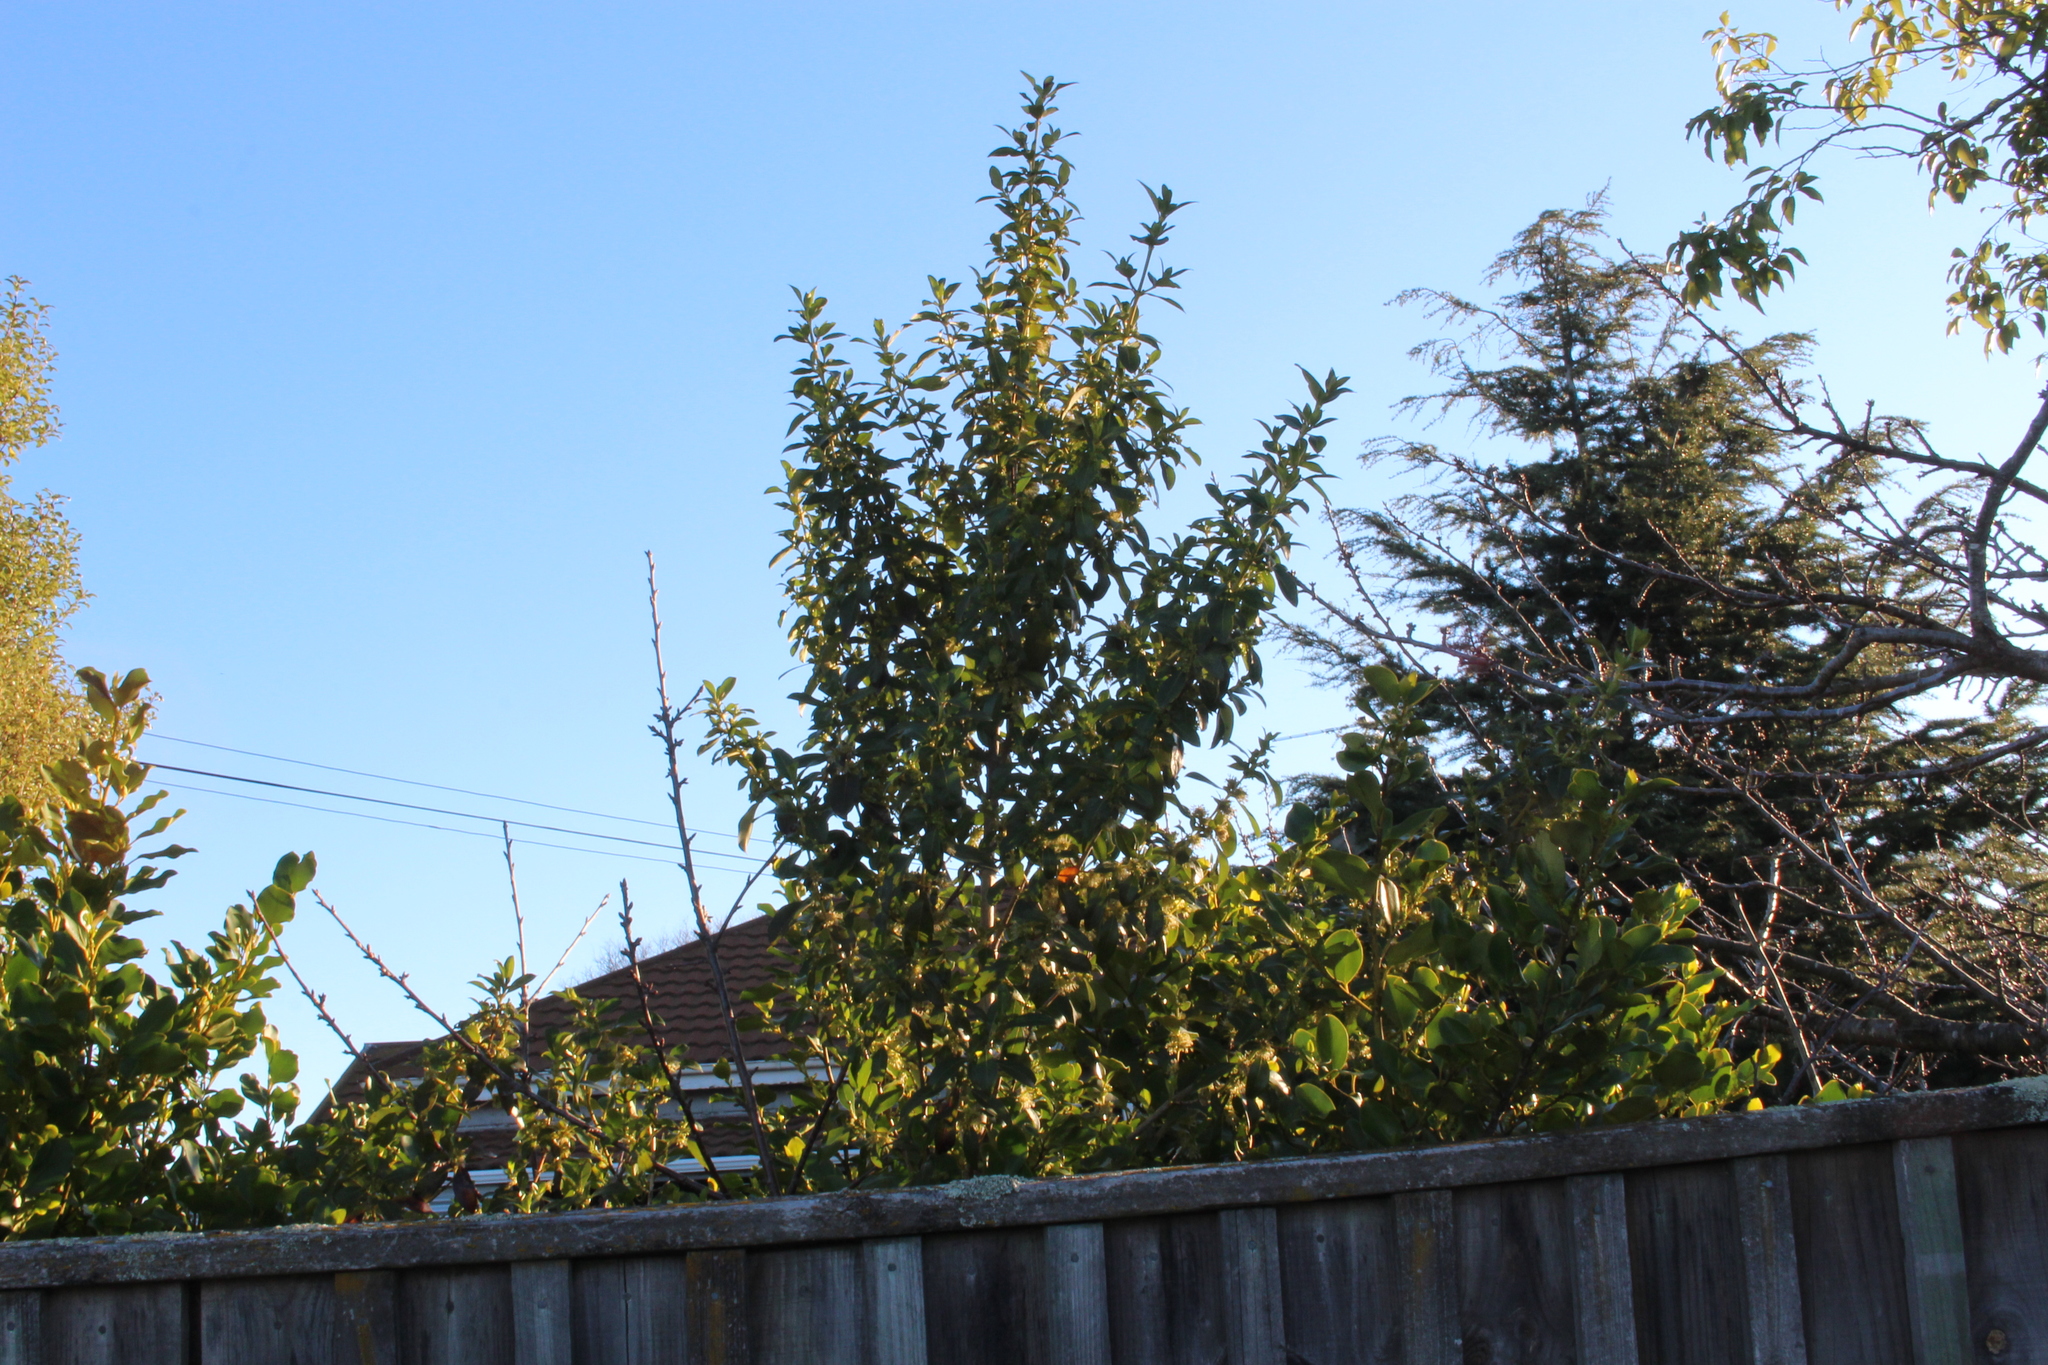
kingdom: Plantae
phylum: Tracheophyta
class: Magnoliopsida
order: Gentianales
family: Rubiaceae
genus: Coprosma
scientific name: Coprosma robusta
